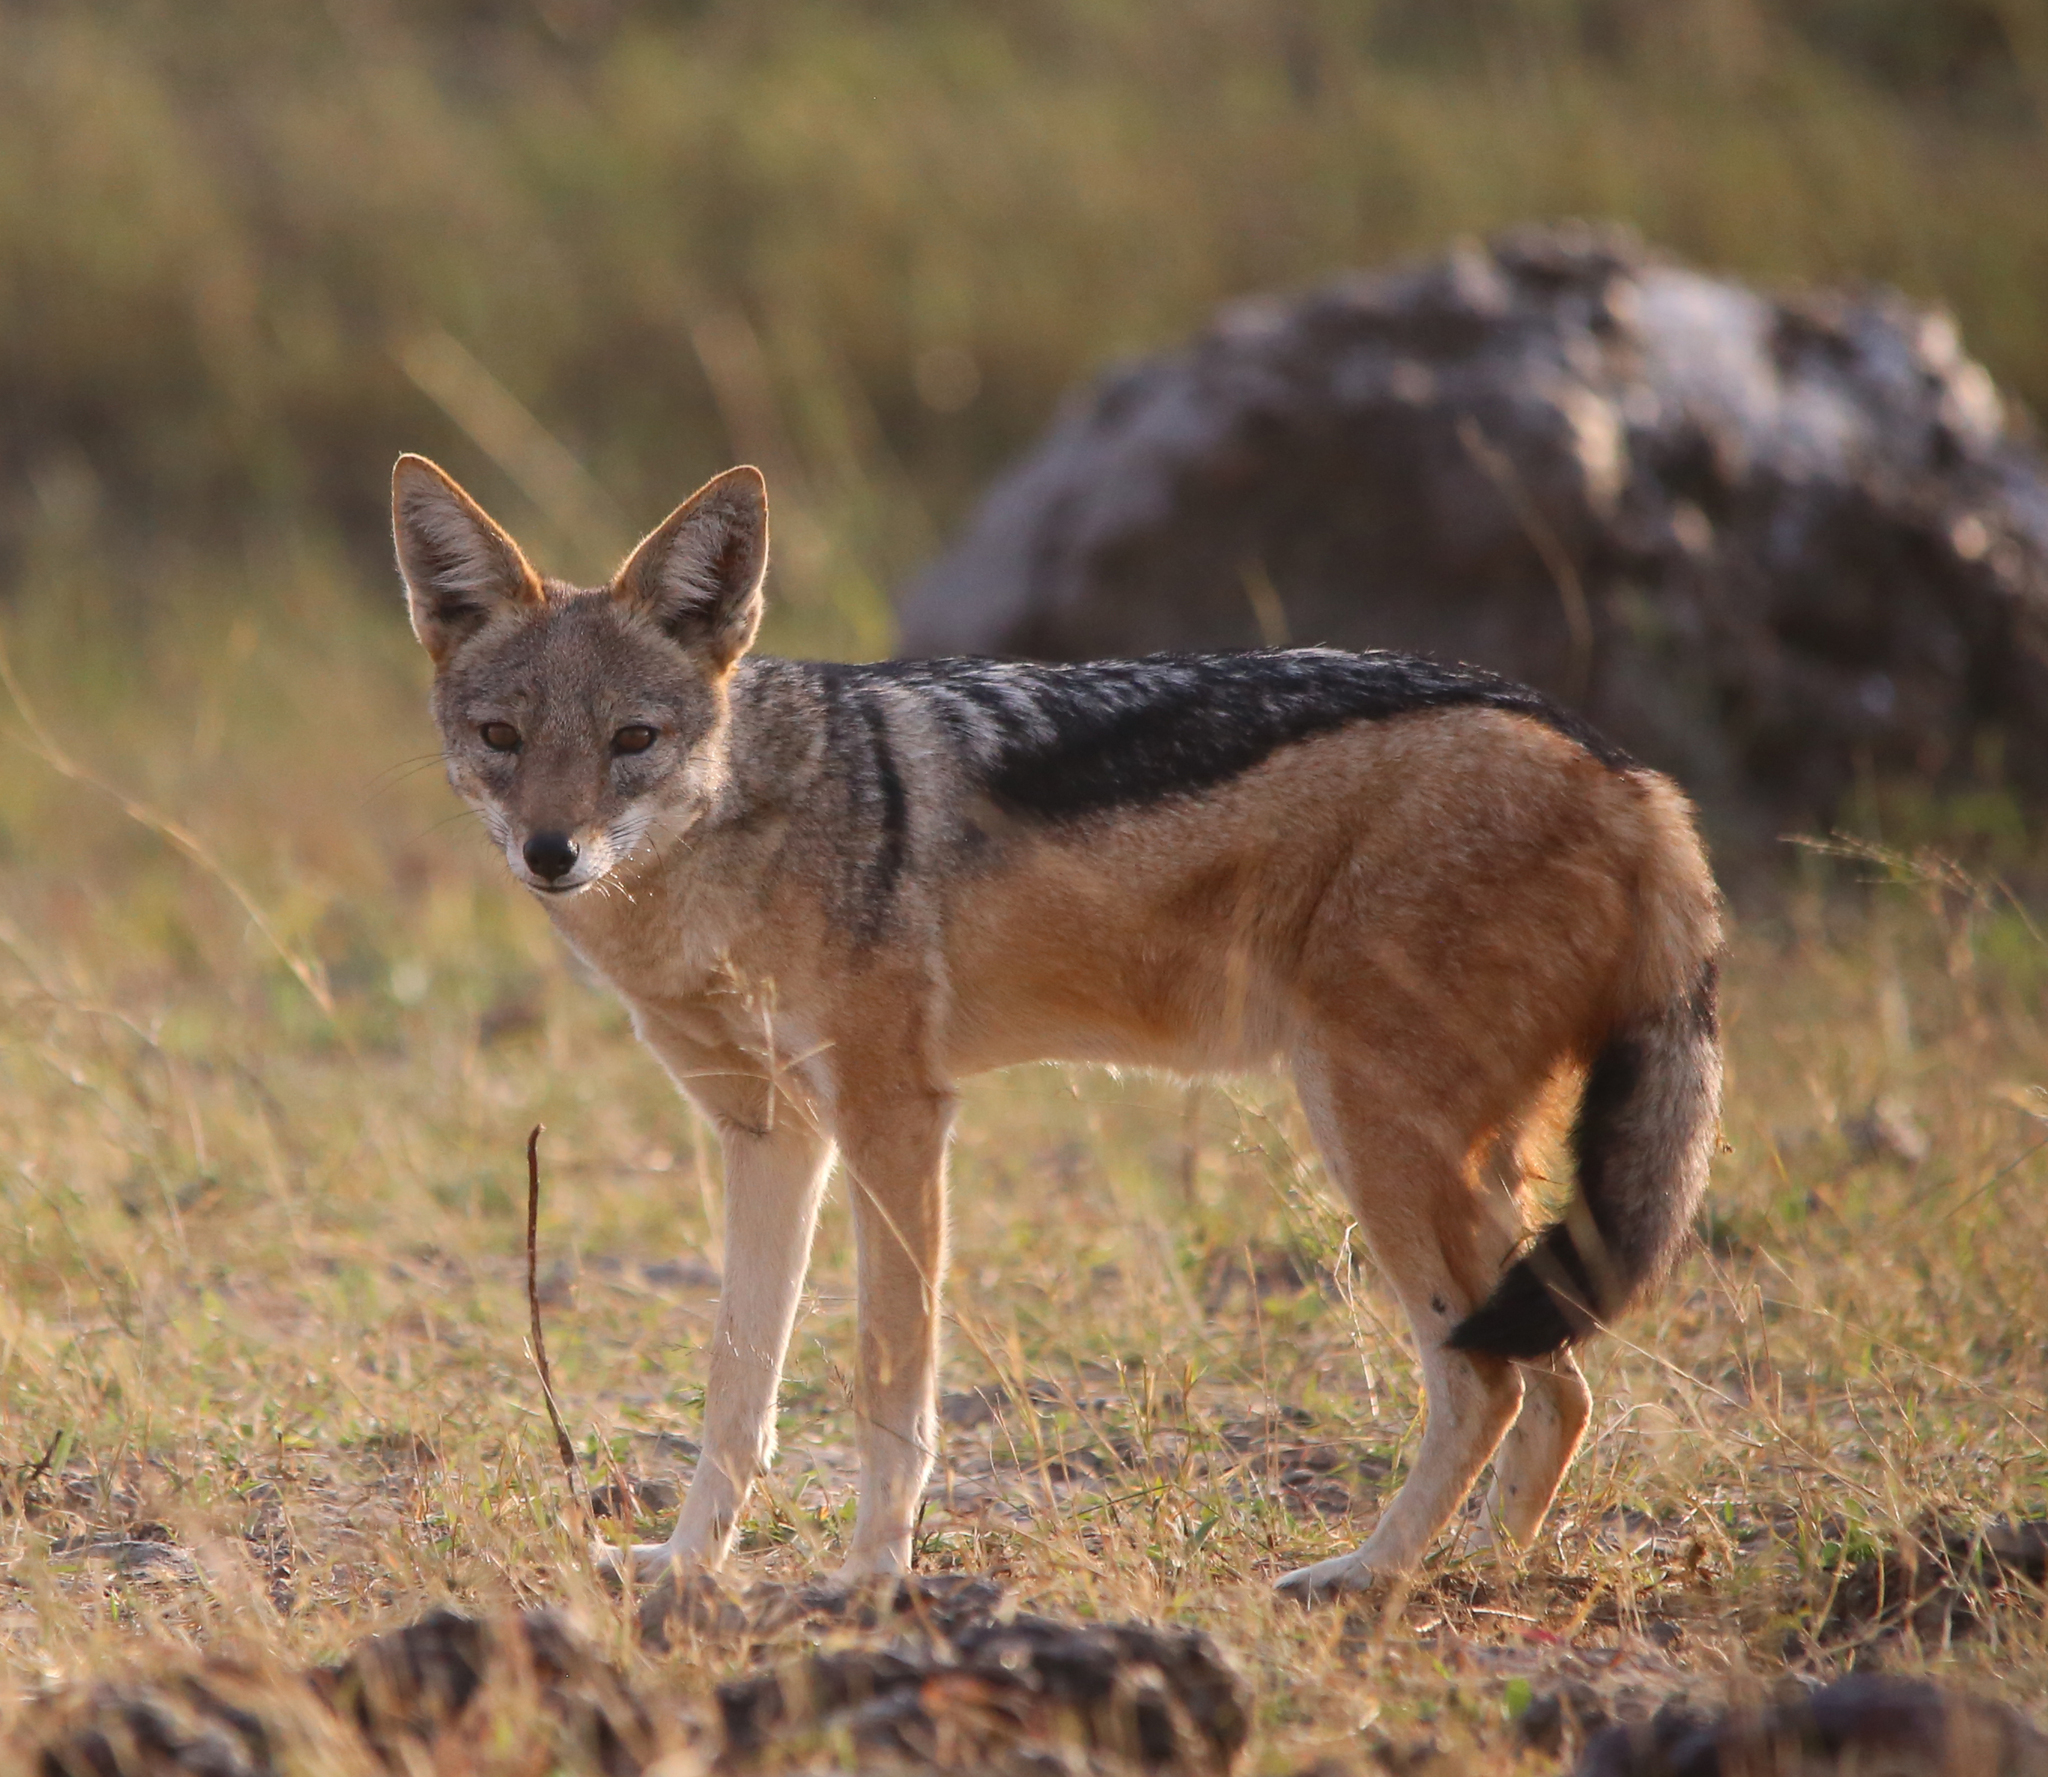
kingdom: Animalia
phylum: Chordata
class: Mammalia
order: Carnivora
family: Canidae
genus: Lupulella
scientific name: Lupulella
